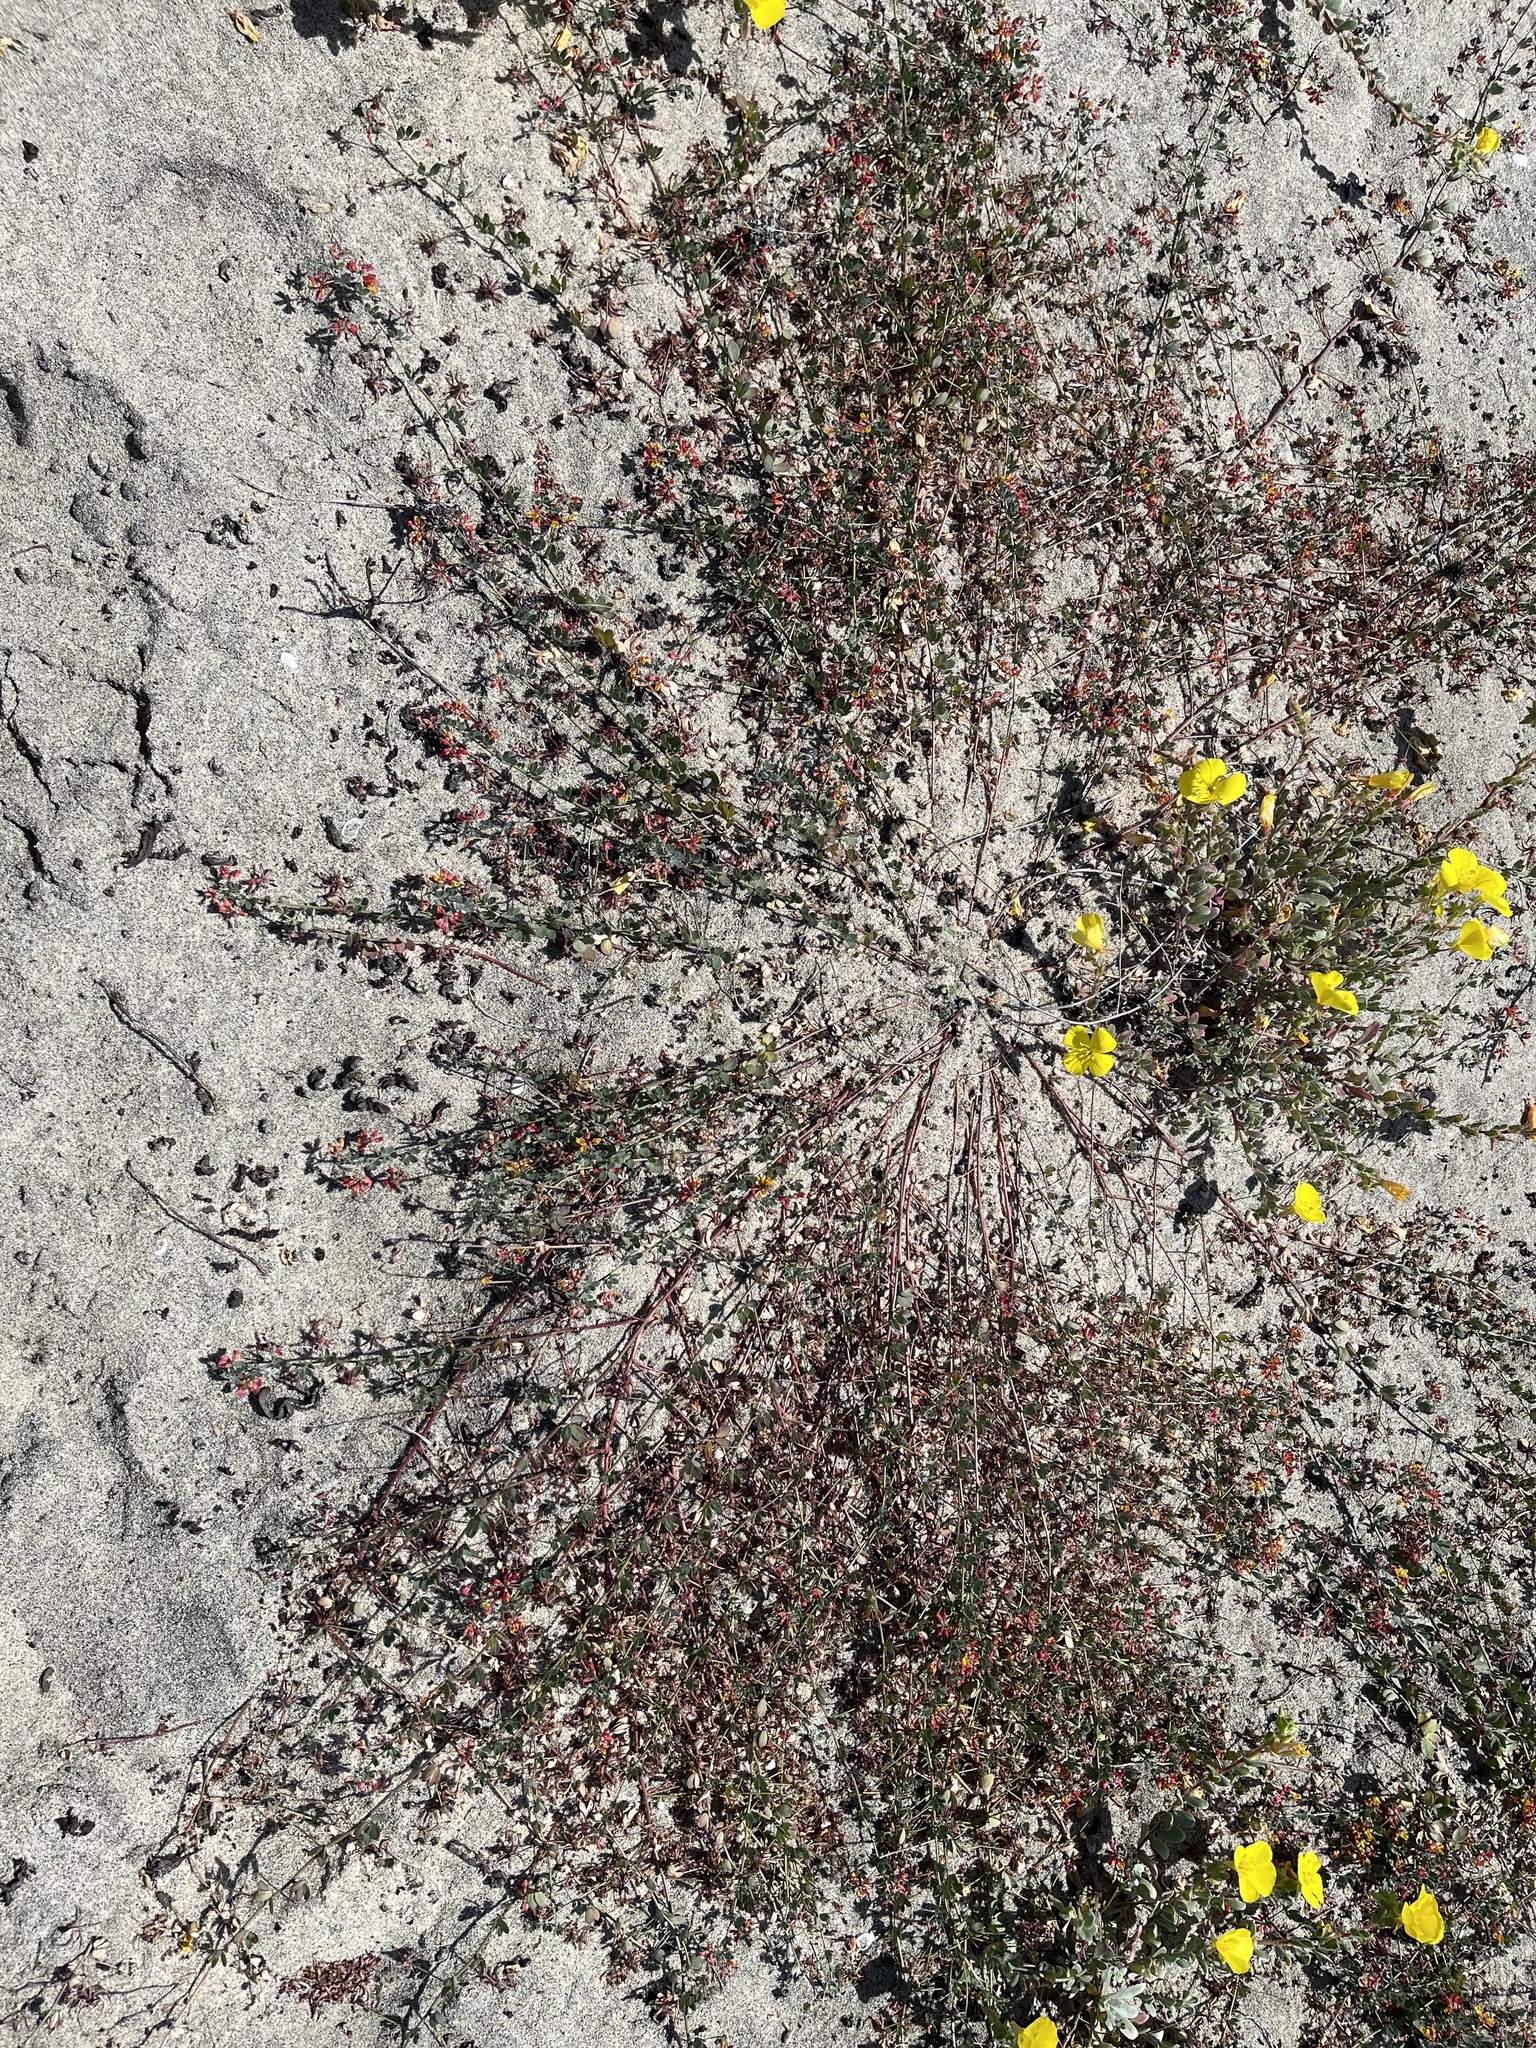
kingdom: Plantae
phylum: Tracheophyta
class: Magnoliopsida
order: Fabales
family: Fabaceae
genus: Acmispon
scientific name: Acmispon prostratus
